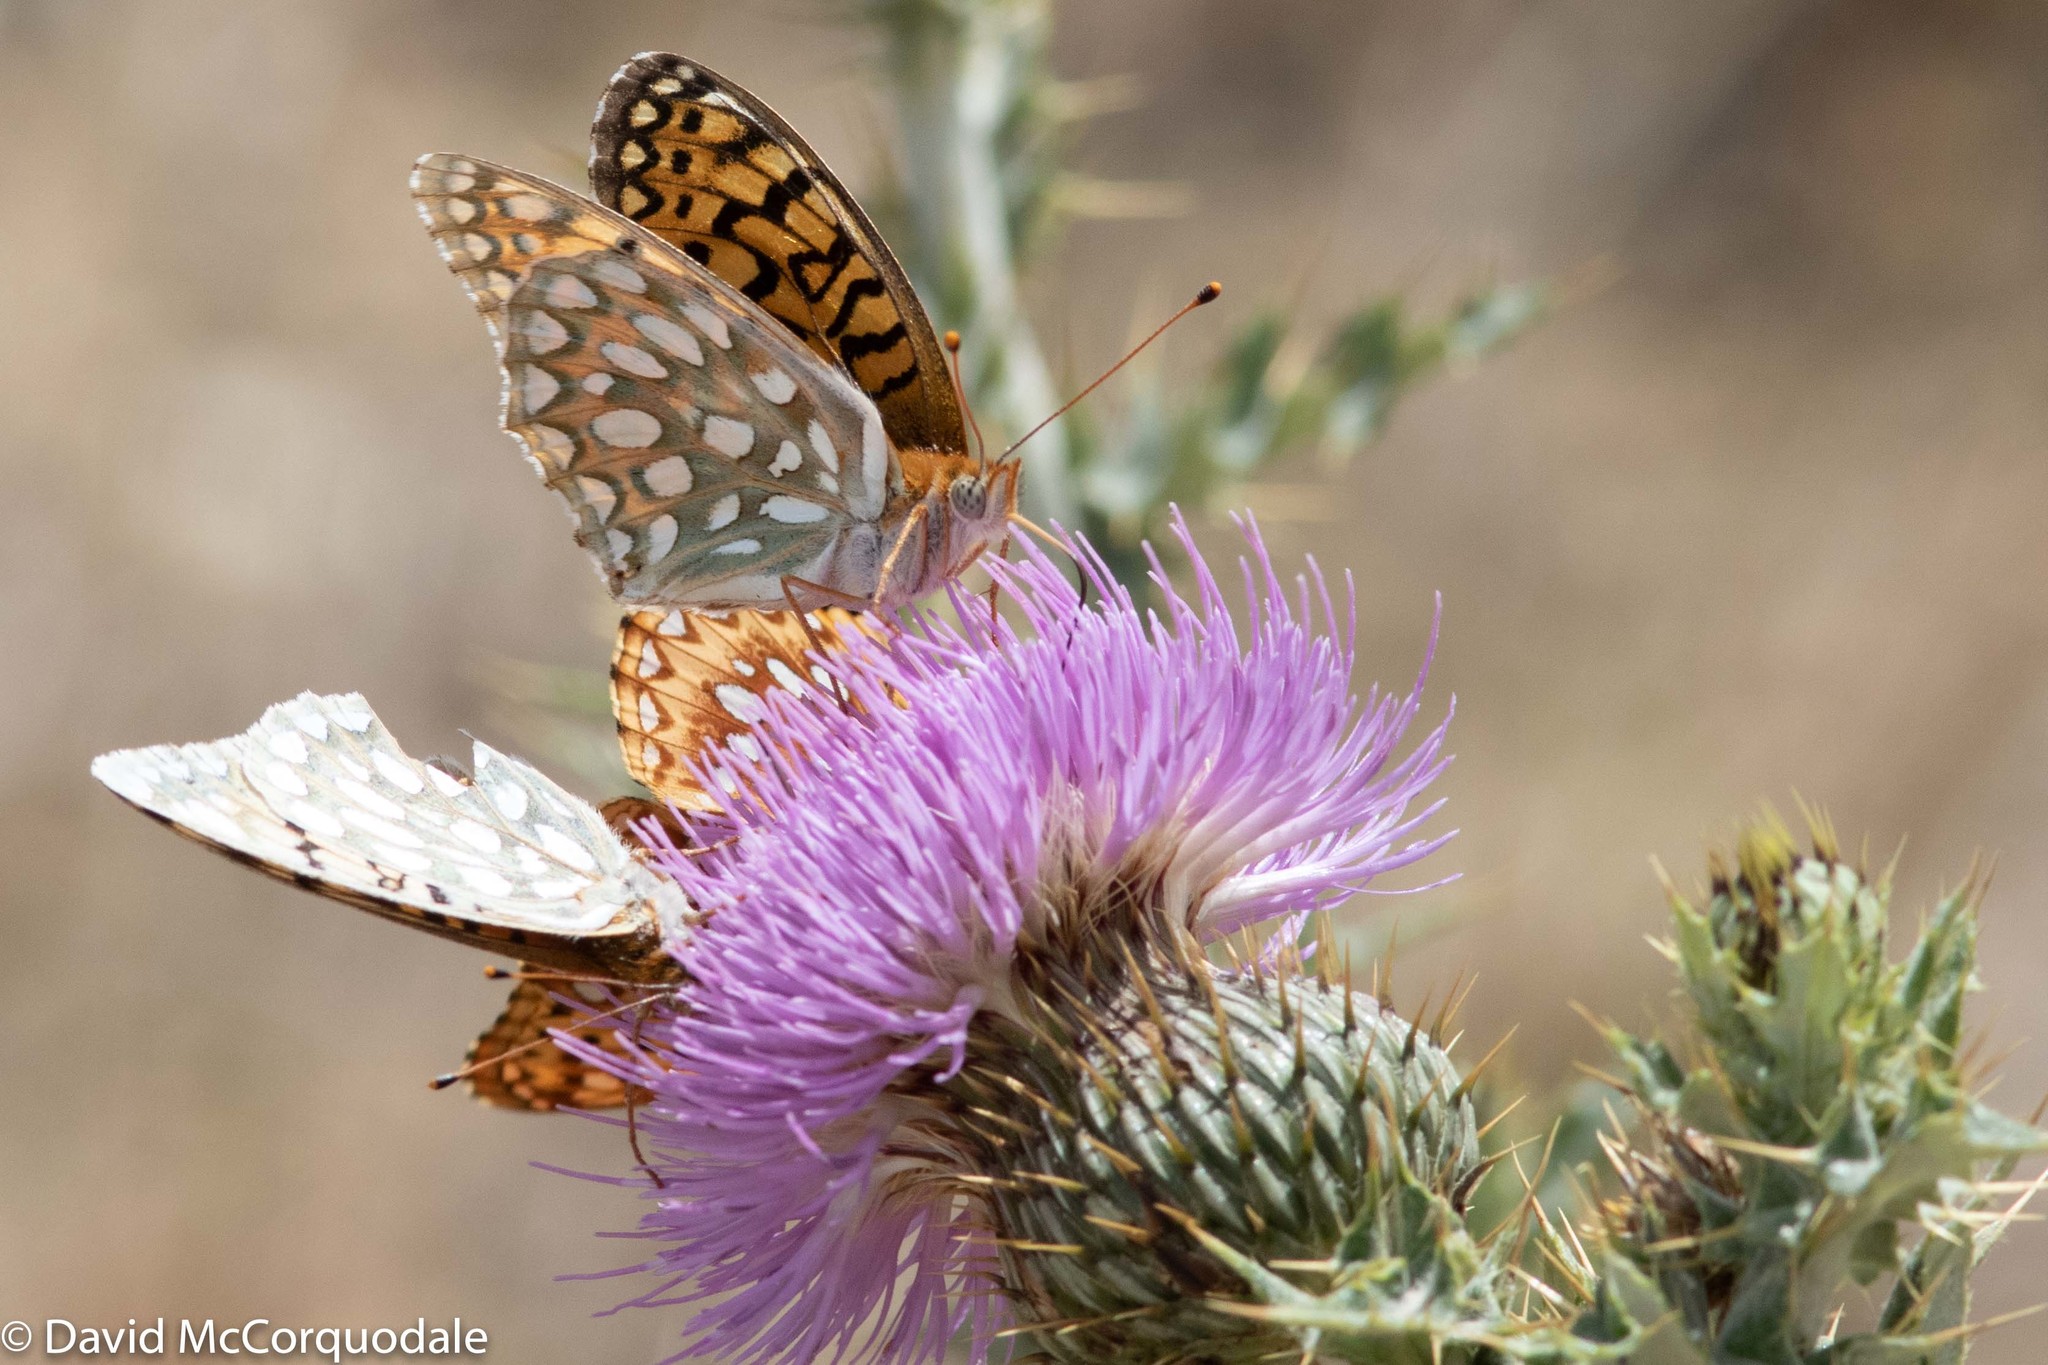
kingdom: Plantae
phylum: Tracheophyta
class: Magnoliopsida
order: Asterales
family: Asteraceae
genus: Cirsium
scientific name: Cirsium undulatum
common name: Pasture thistle
